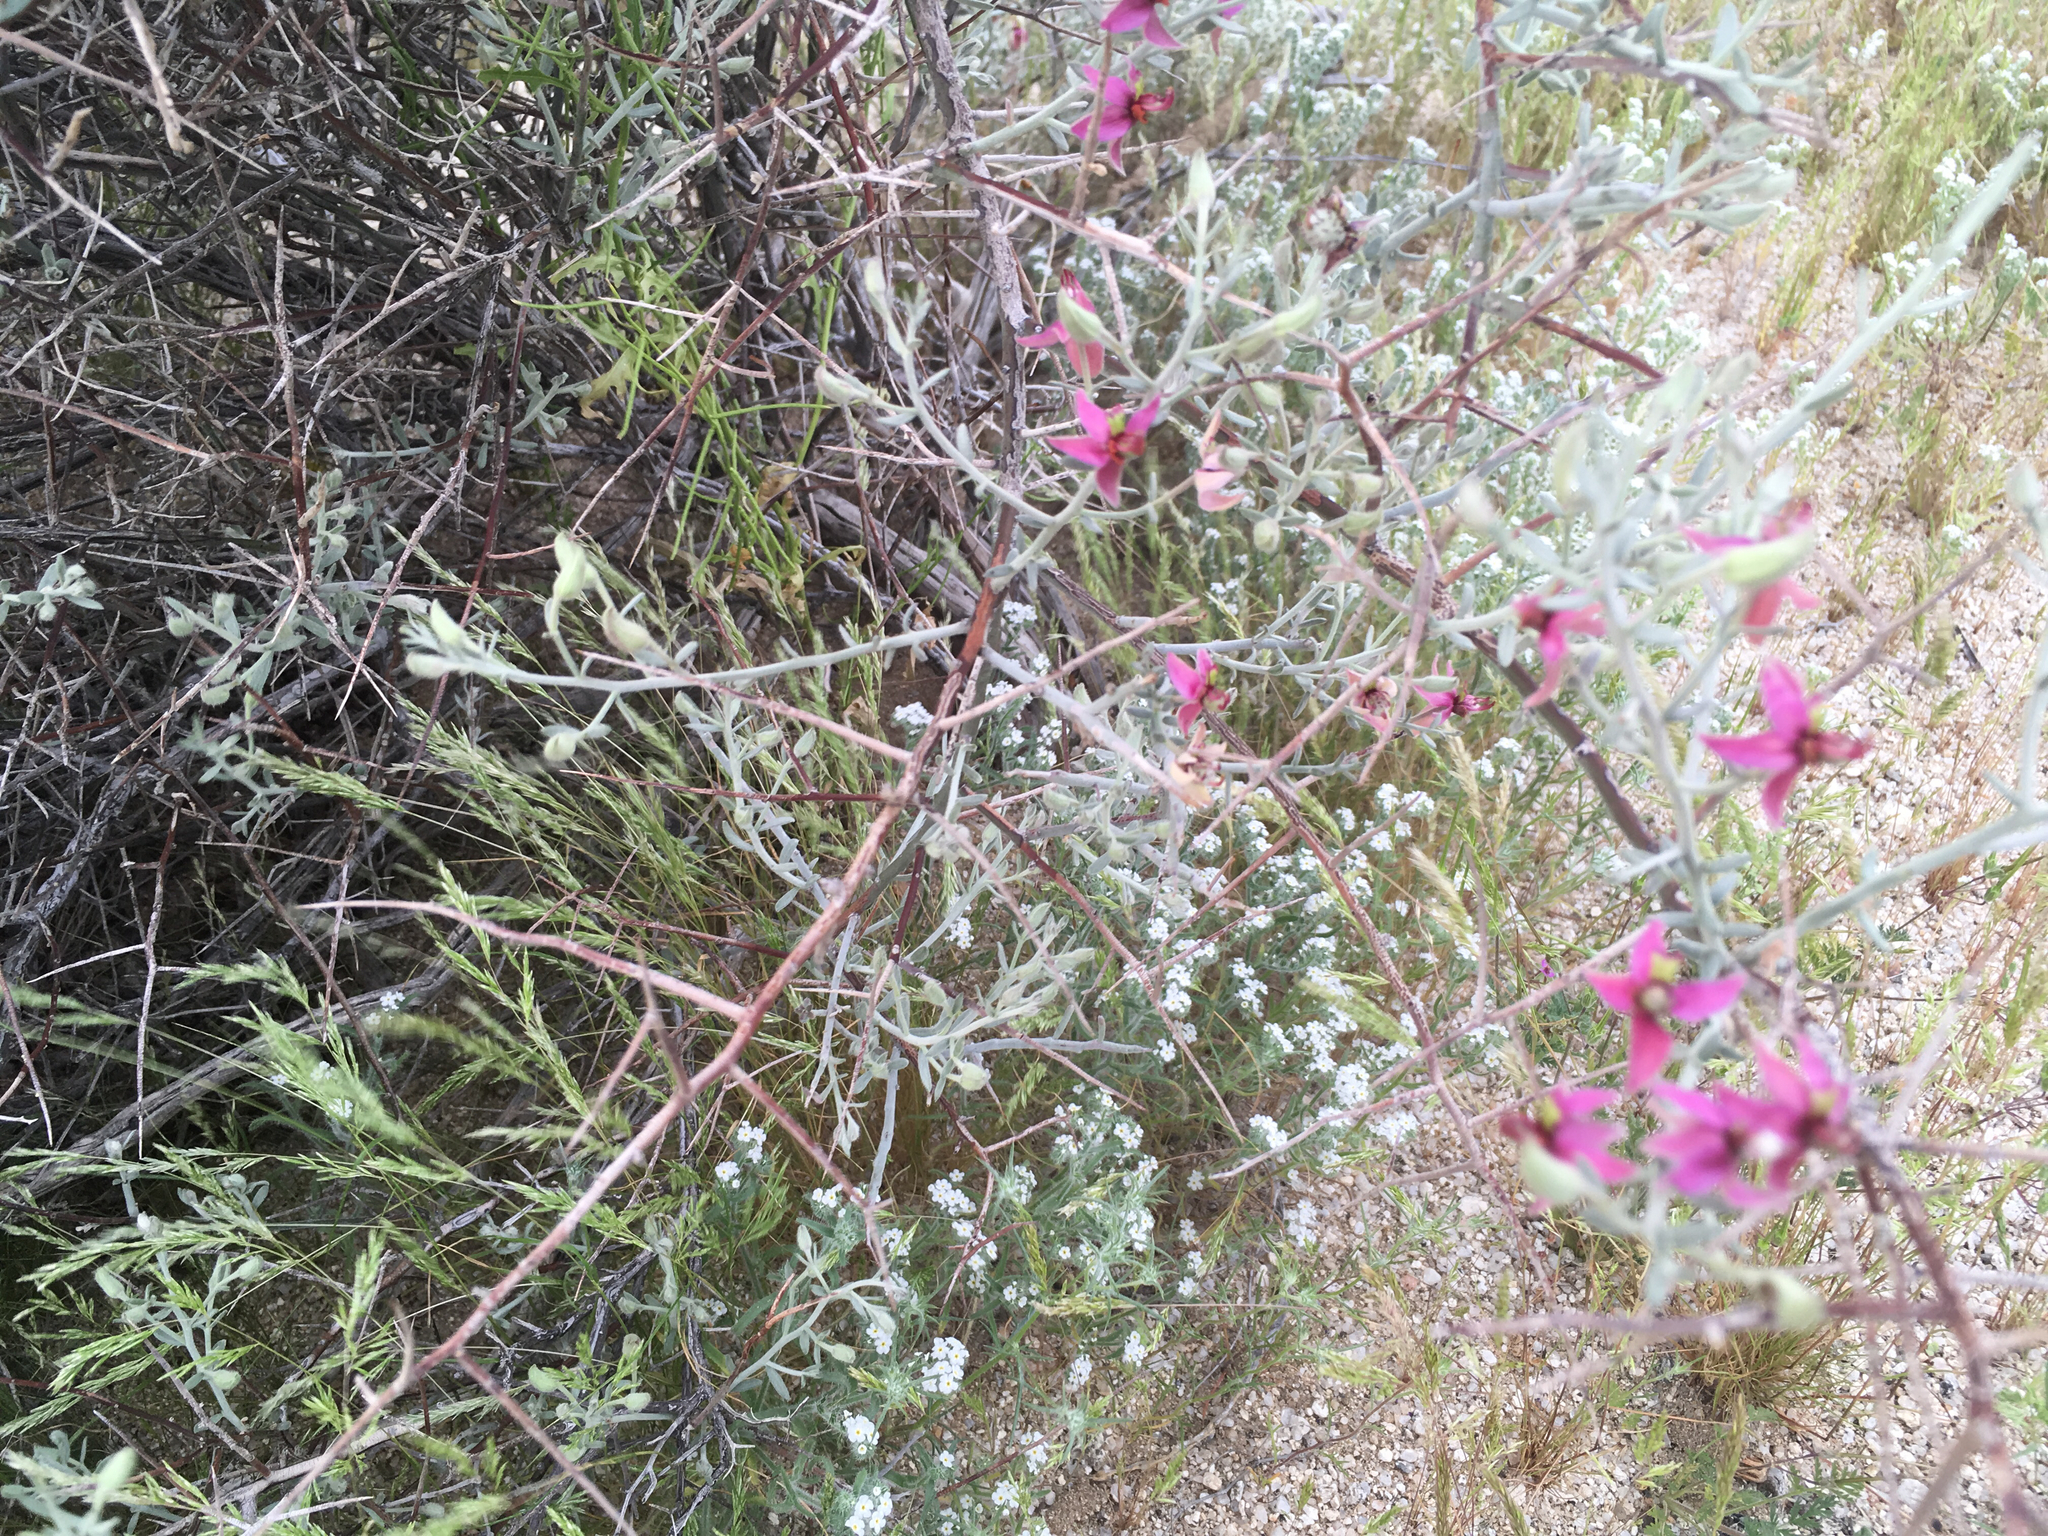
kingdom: Plantae
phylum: Tracheophyta
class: Magnoliopsida
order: Zygophyllales
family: Krameriaceae
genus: Krameria
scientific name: Krameria bicolor
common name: White ratany
